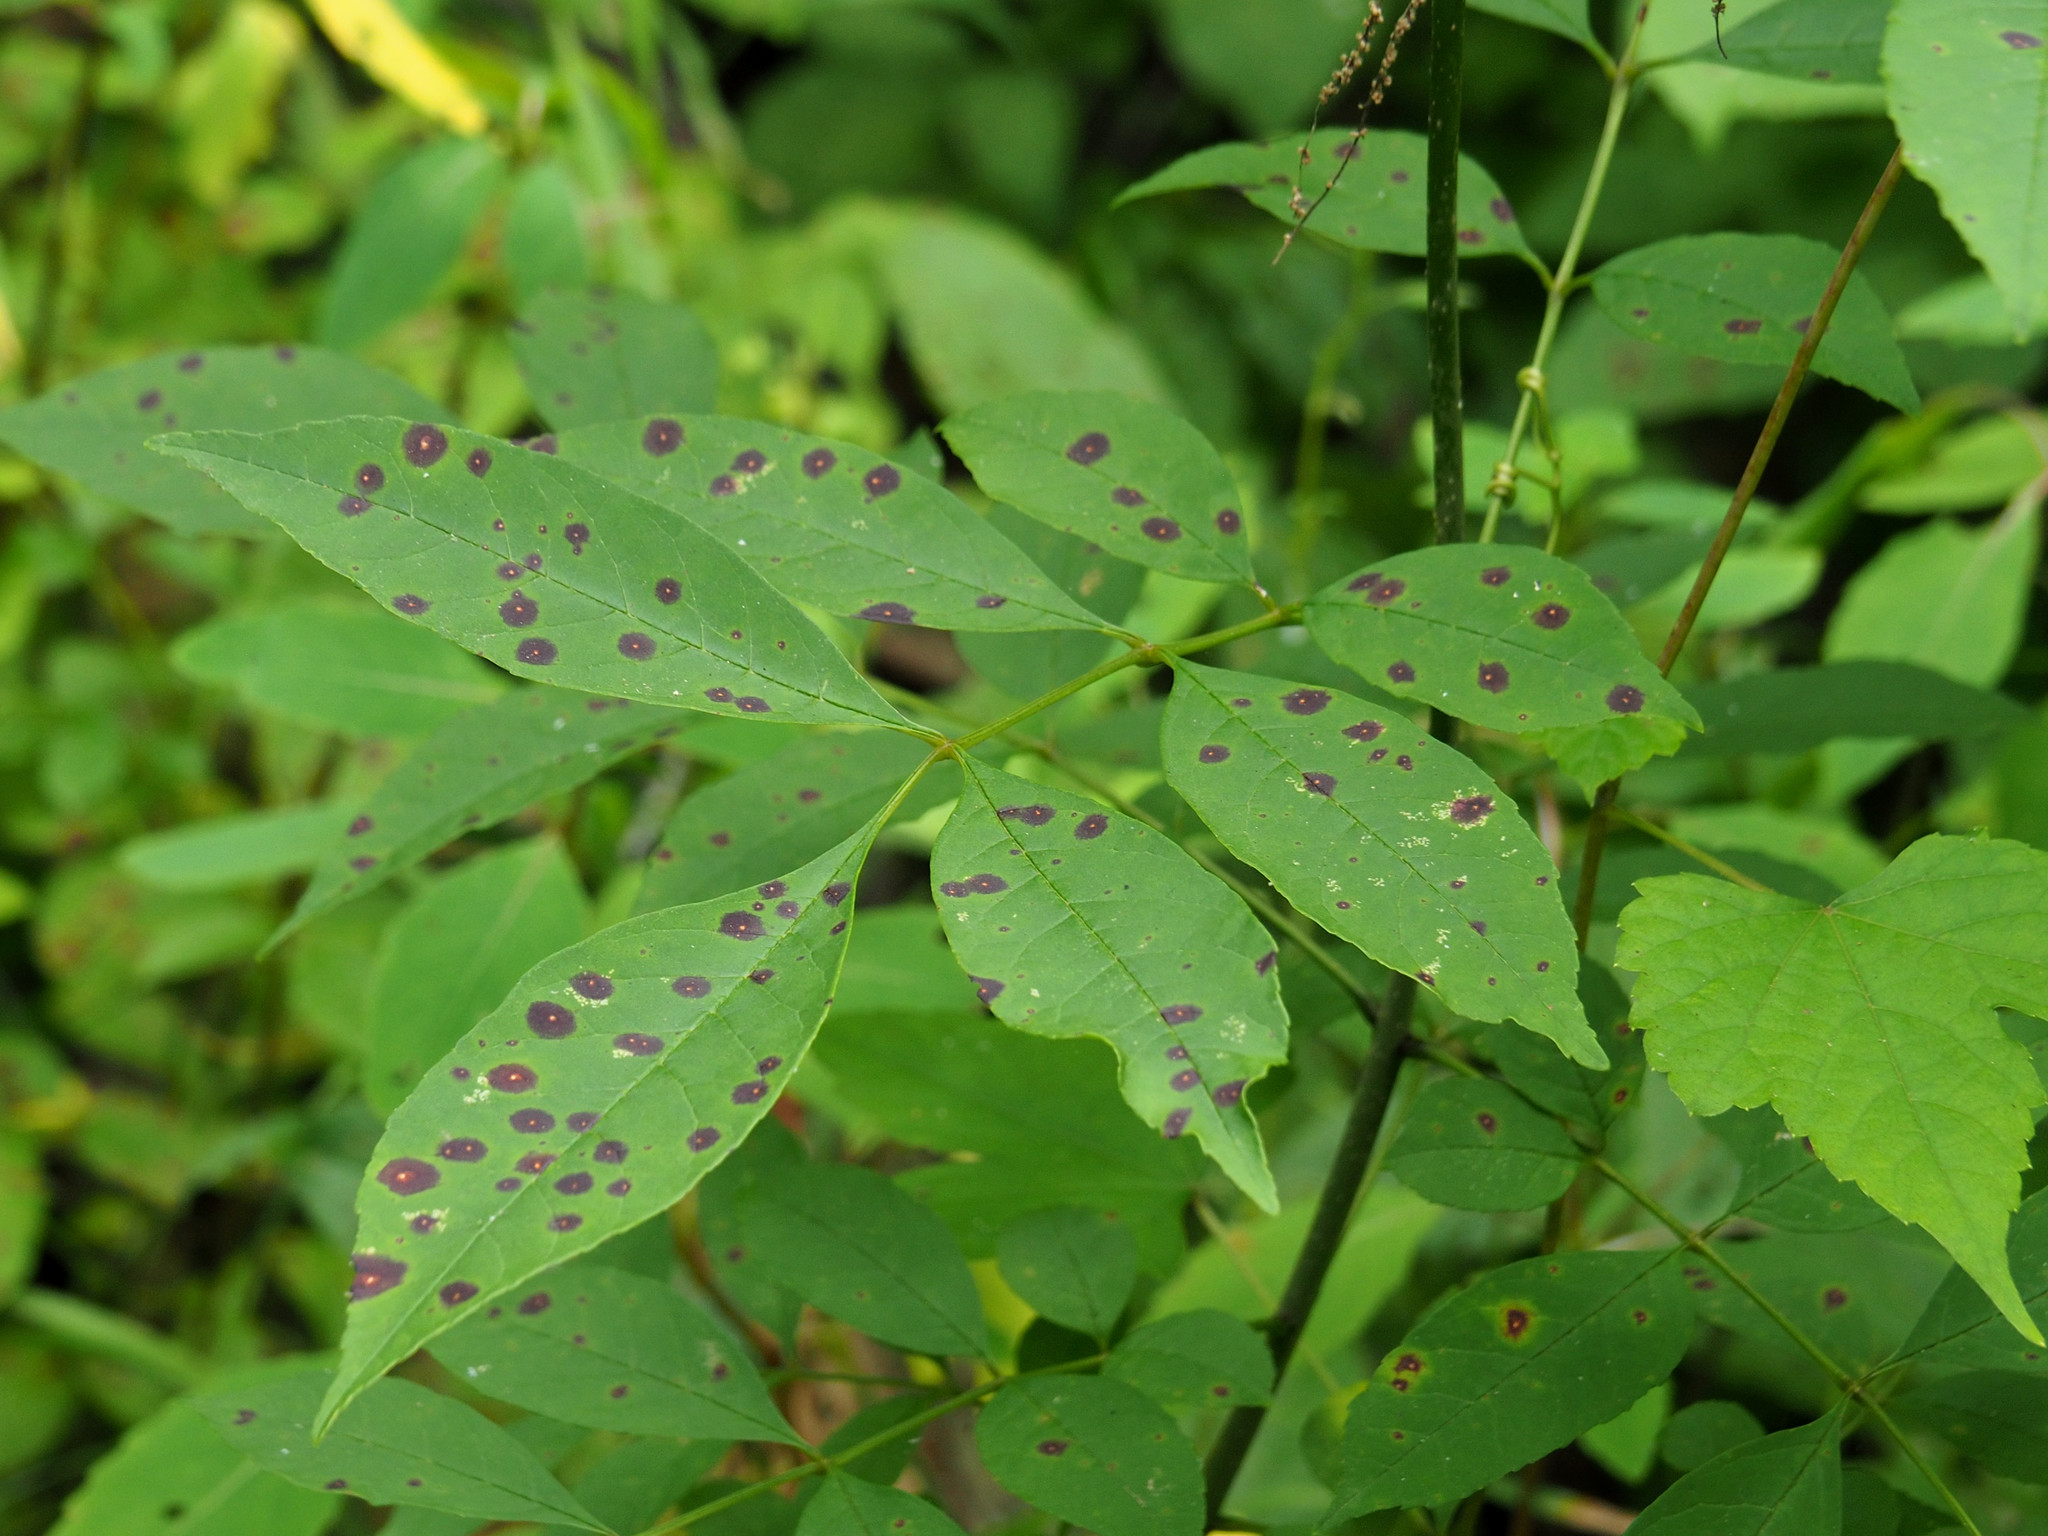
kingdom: Fungi
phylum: Ascomycota
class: Dothideomycetes
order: Mycosphaerellales
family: Mycosphaerellaceae
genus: Mycosphaerella
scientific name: Mycosphaerella fraxinicola
